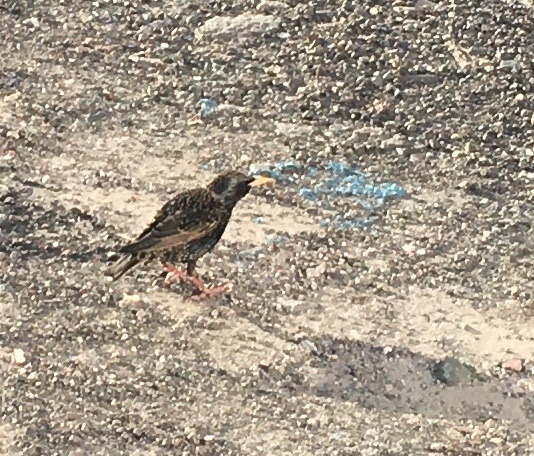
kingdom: Animalia
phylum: Chordata
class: Aves
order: Passeriformes
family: Sturnidae
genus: Sturnus
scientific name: Sturnus vulgaris
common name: Common starling
